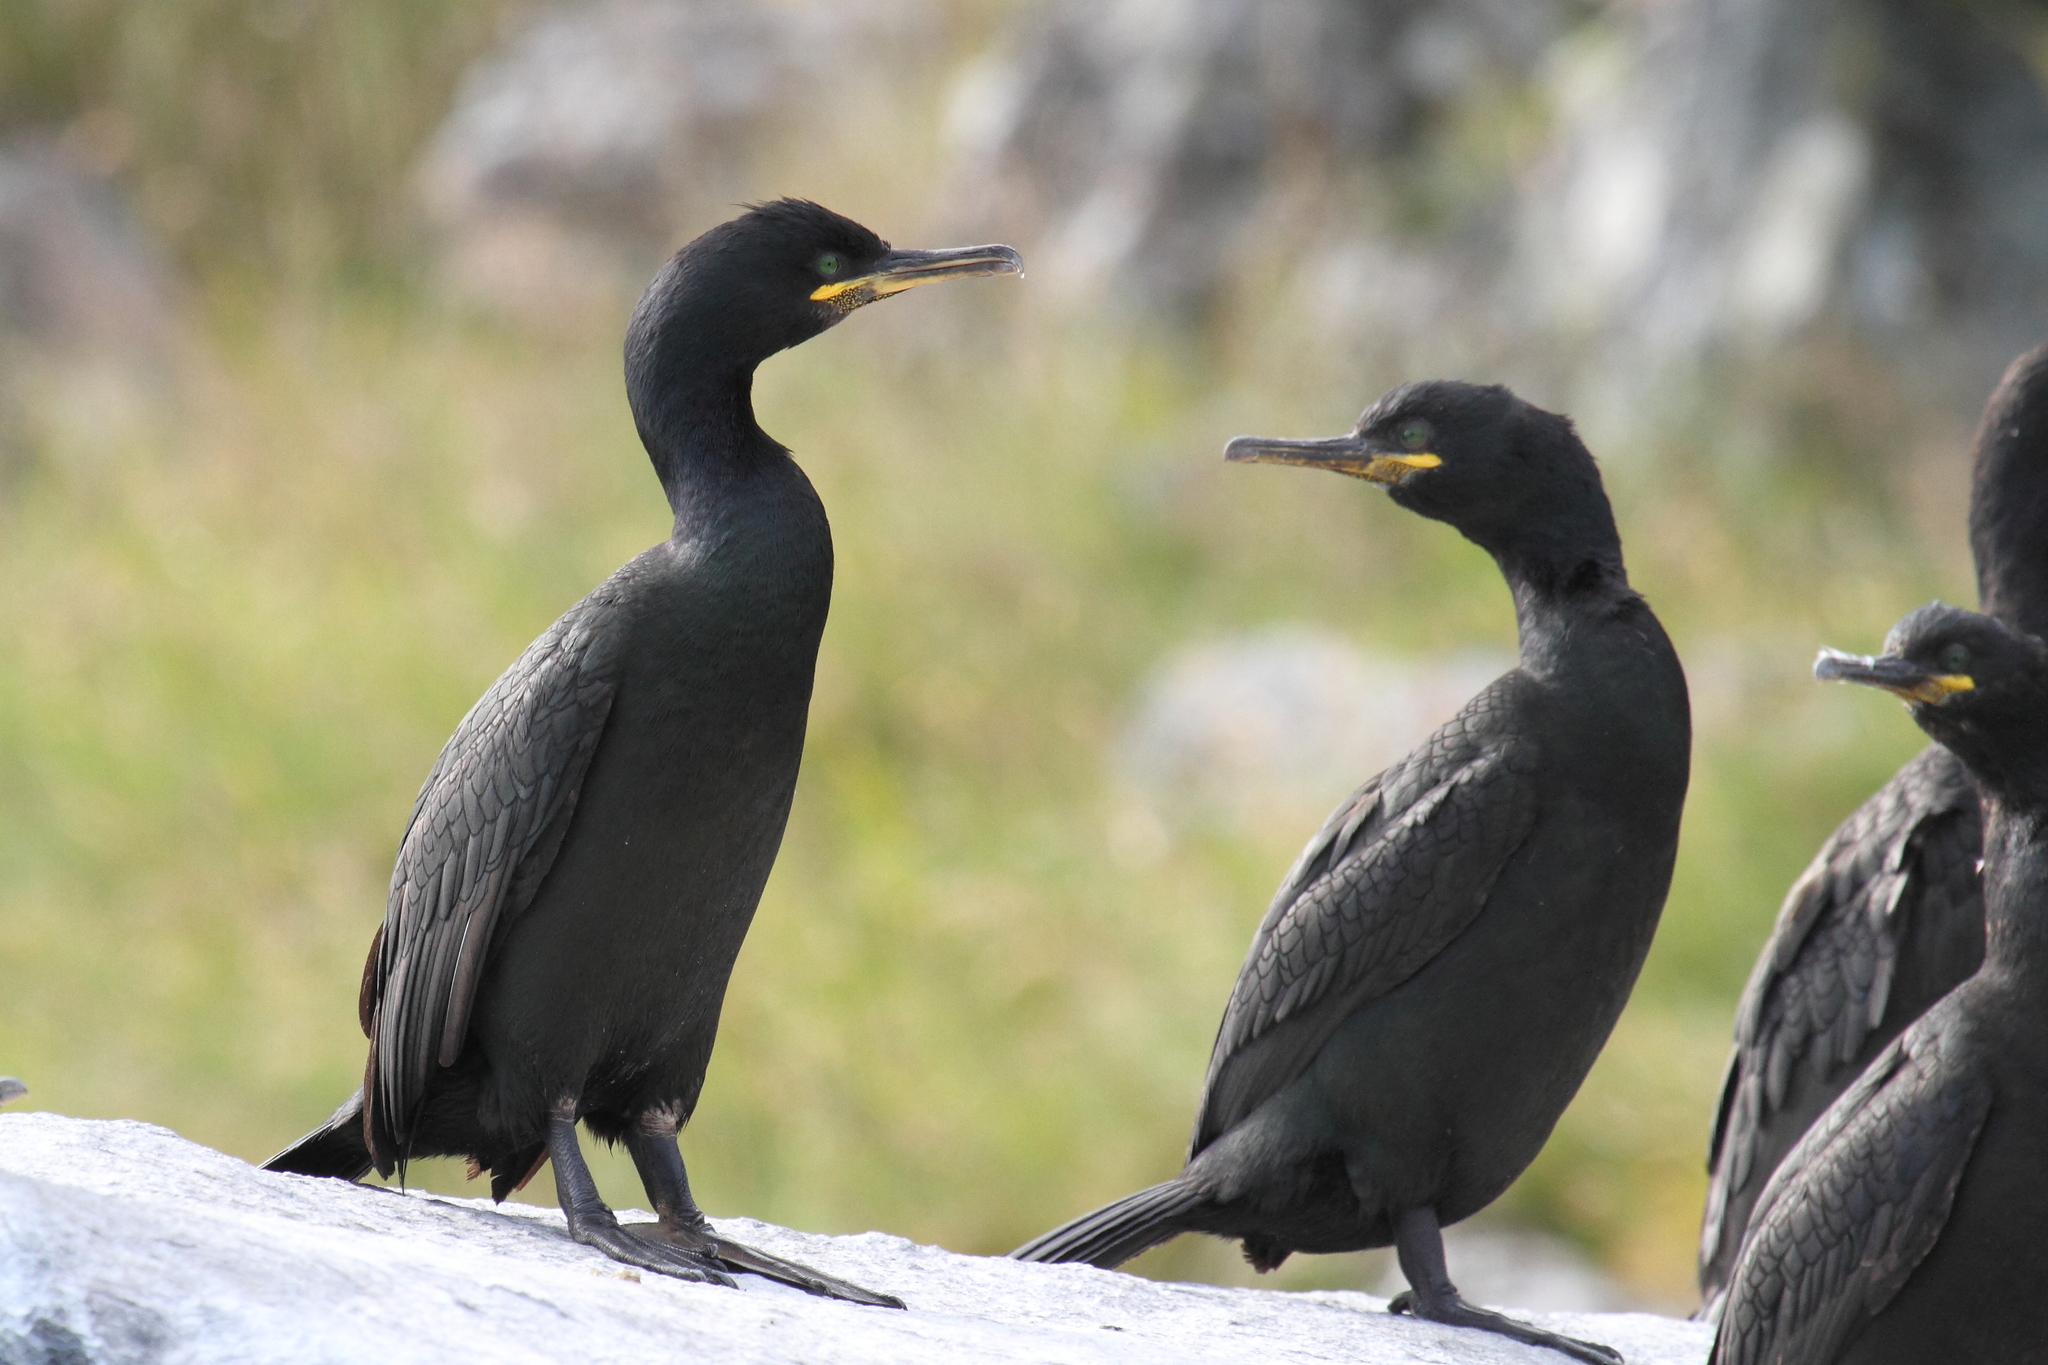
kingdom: Animalia
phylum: Chordata
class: Aves
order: Suliformes
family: Phalacrocoracidae
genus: Phalacrocorax
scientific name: Phalacrocorax aristotelis
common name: European shag
